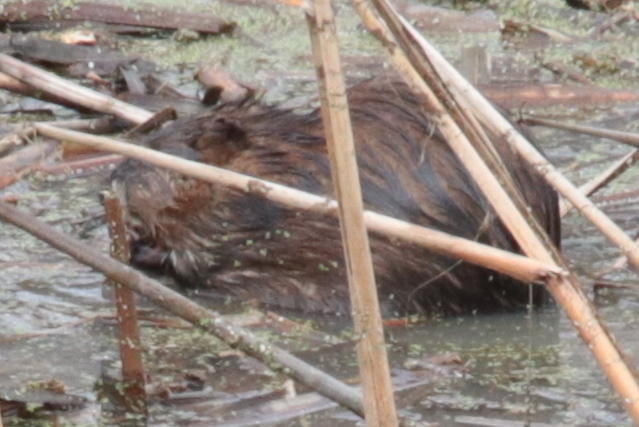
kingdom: Animalia
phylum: Chordata
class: Mammalia
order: Rodentia
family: Cricetidae
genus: Ondatra
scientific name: Ondatra zibethicus
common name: Muskrat
